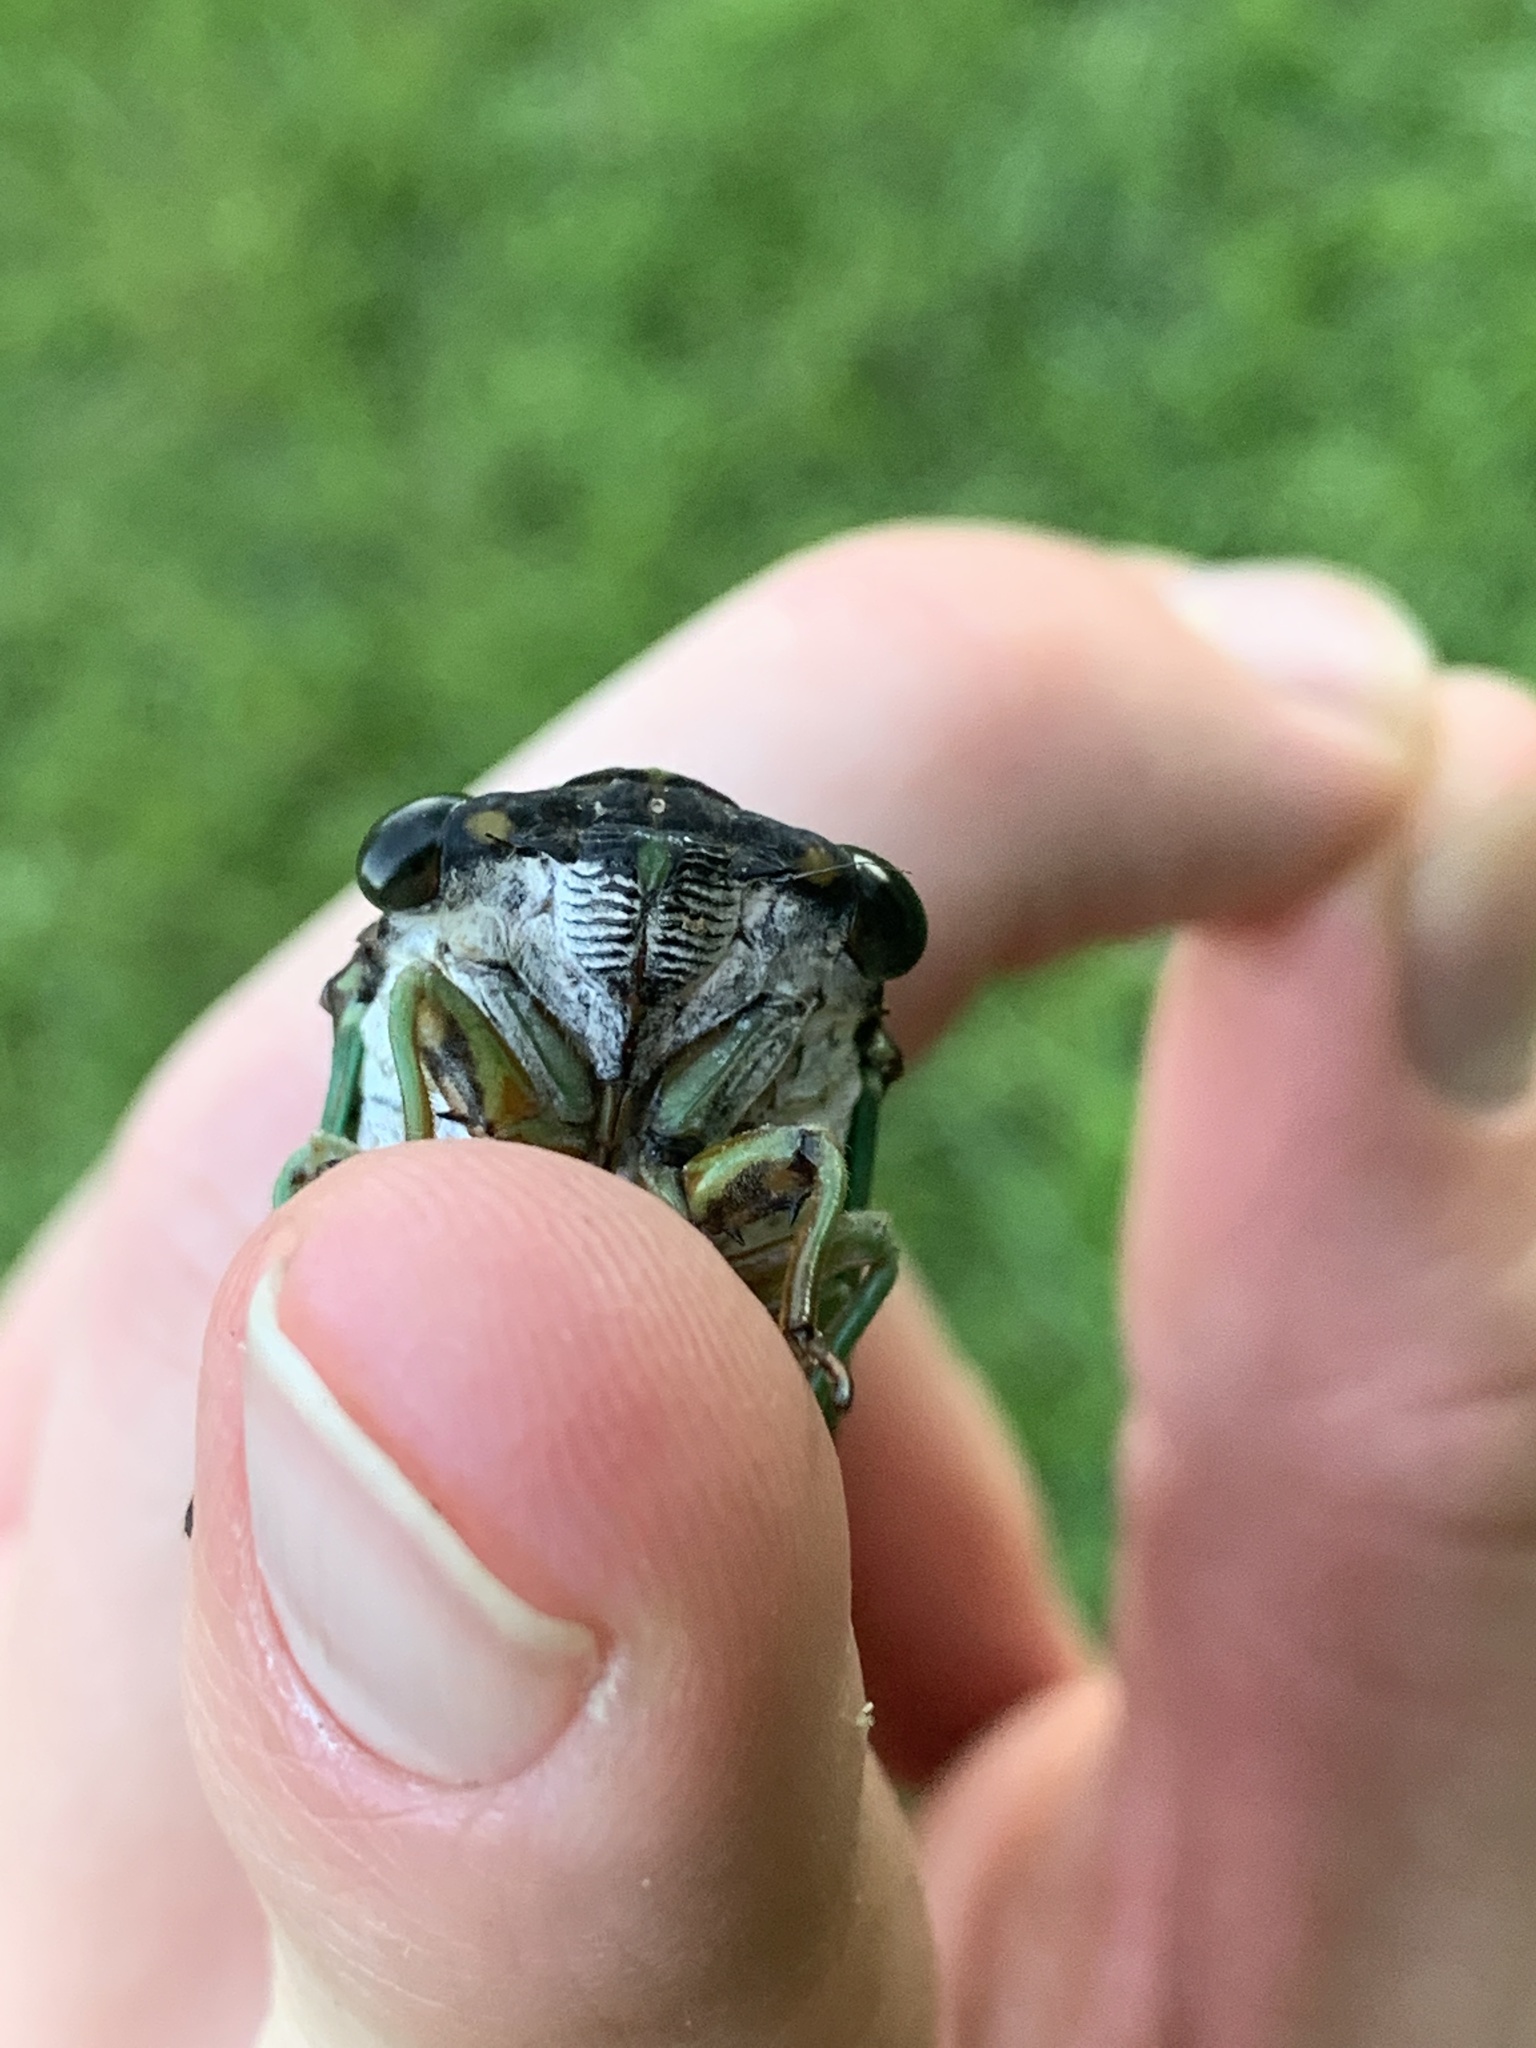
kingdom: Animalia
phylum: Arthropoda
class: Insecta
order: Hemiptera
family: Cicadidae
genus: Neotibicen
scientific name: Neotibicen tibicen
